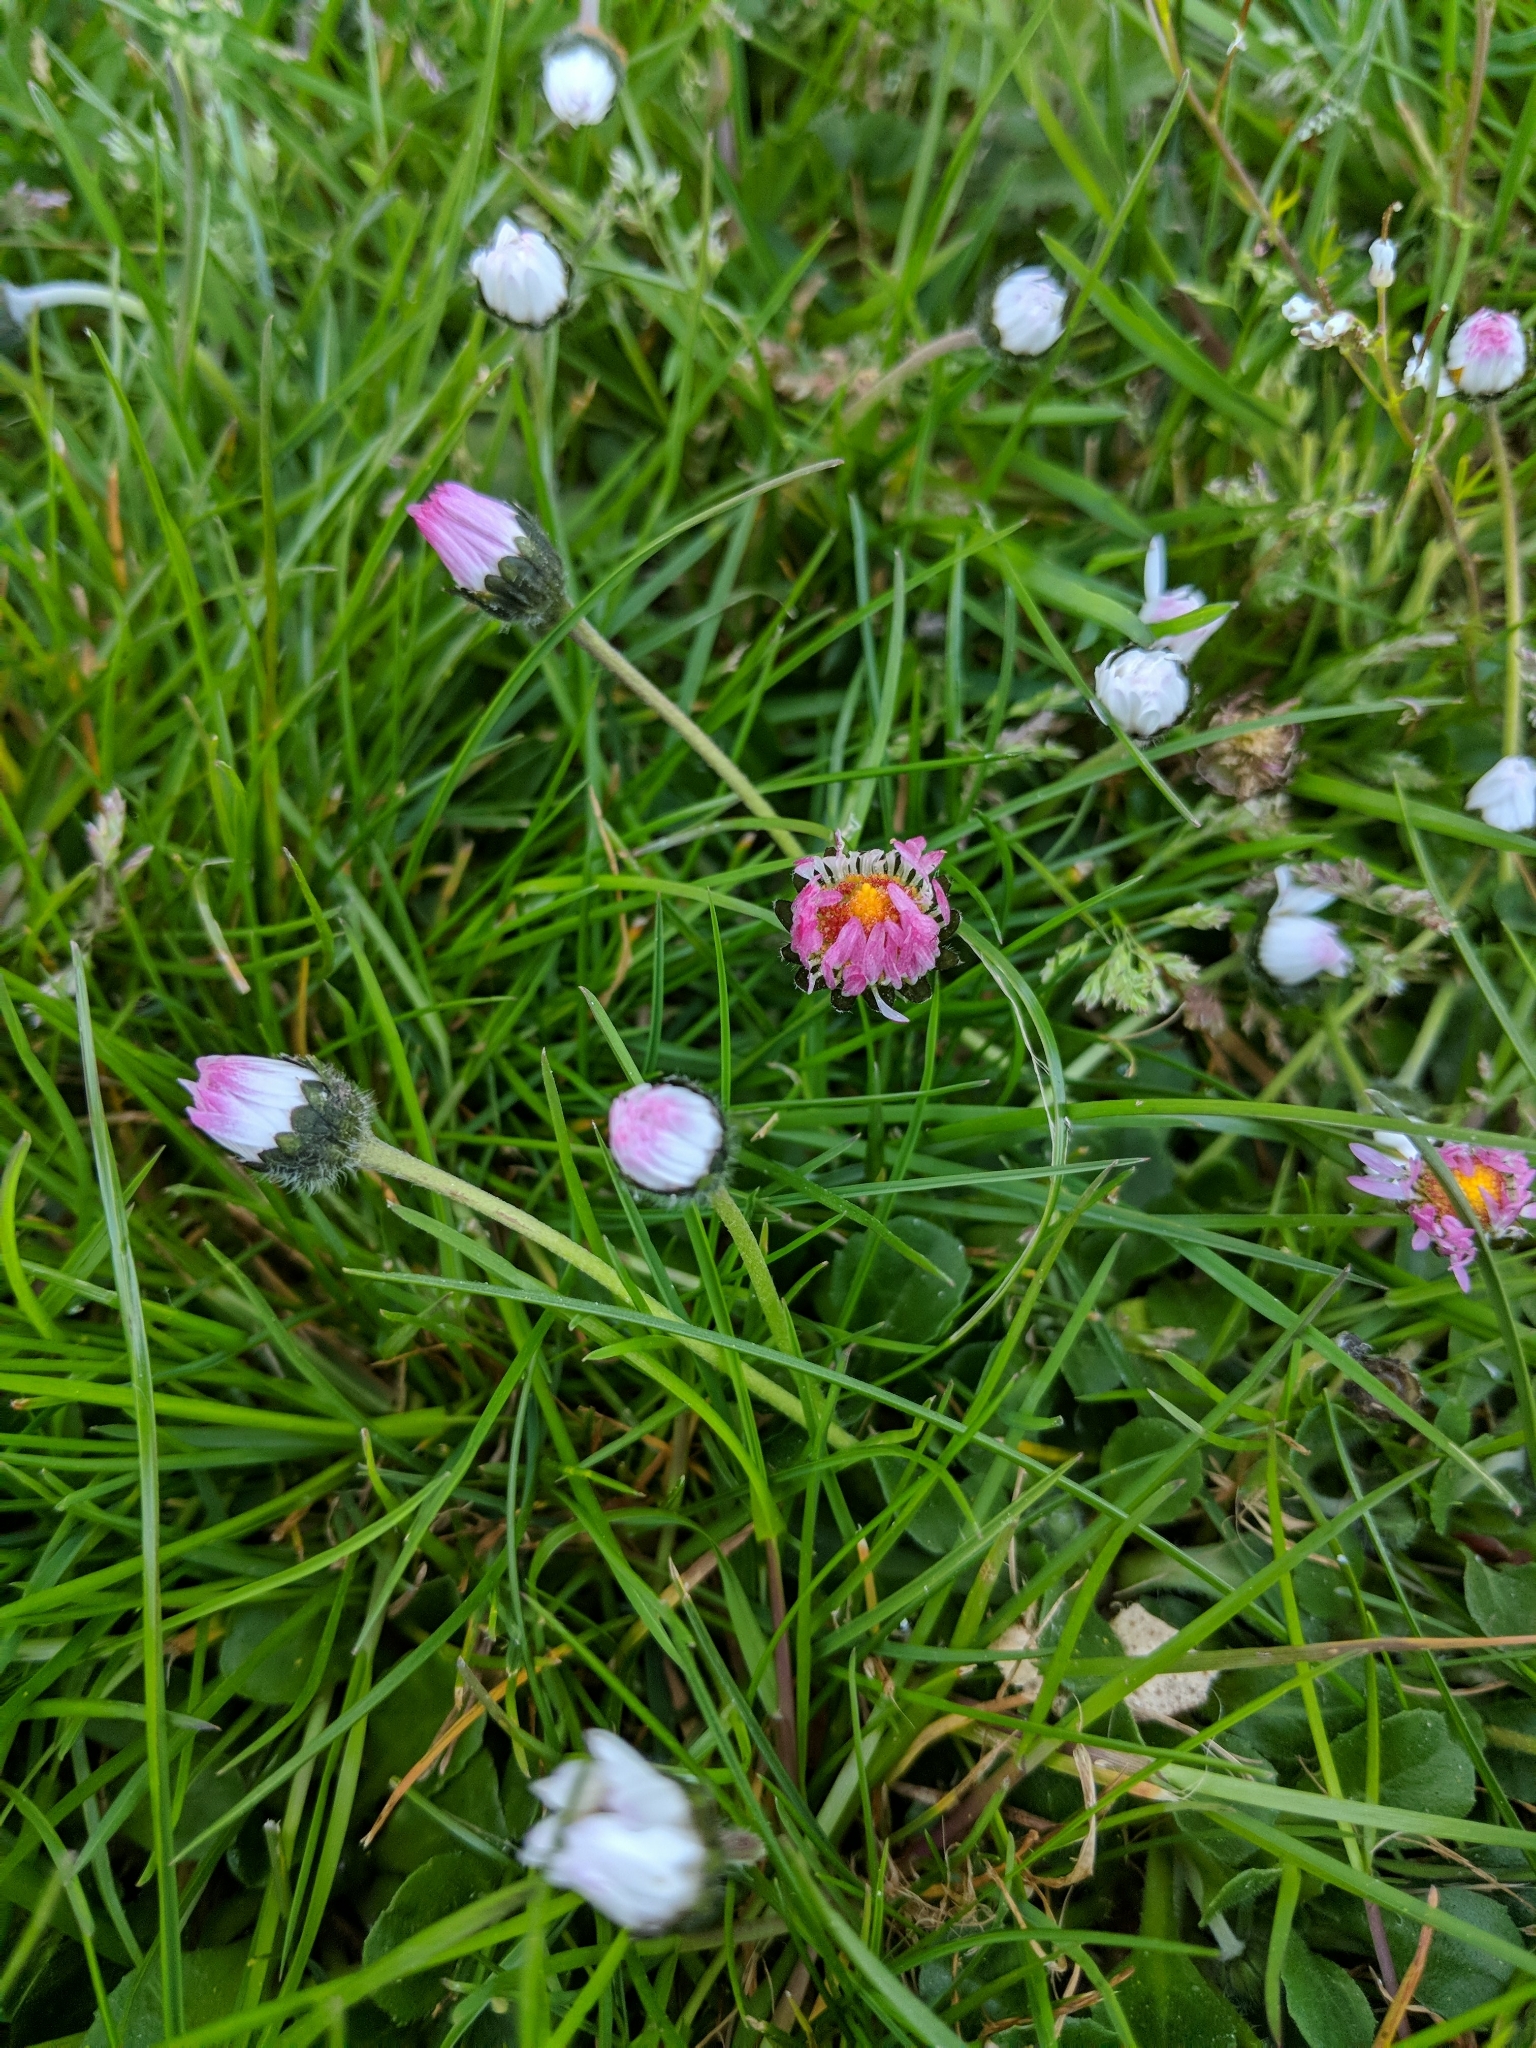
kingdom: Plantae
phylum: Tracheophyta
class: Magnoliopsida
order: Asterales
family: Asteraceae
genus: Bellis
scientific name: Bellis perennis
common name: Lawndaisy
